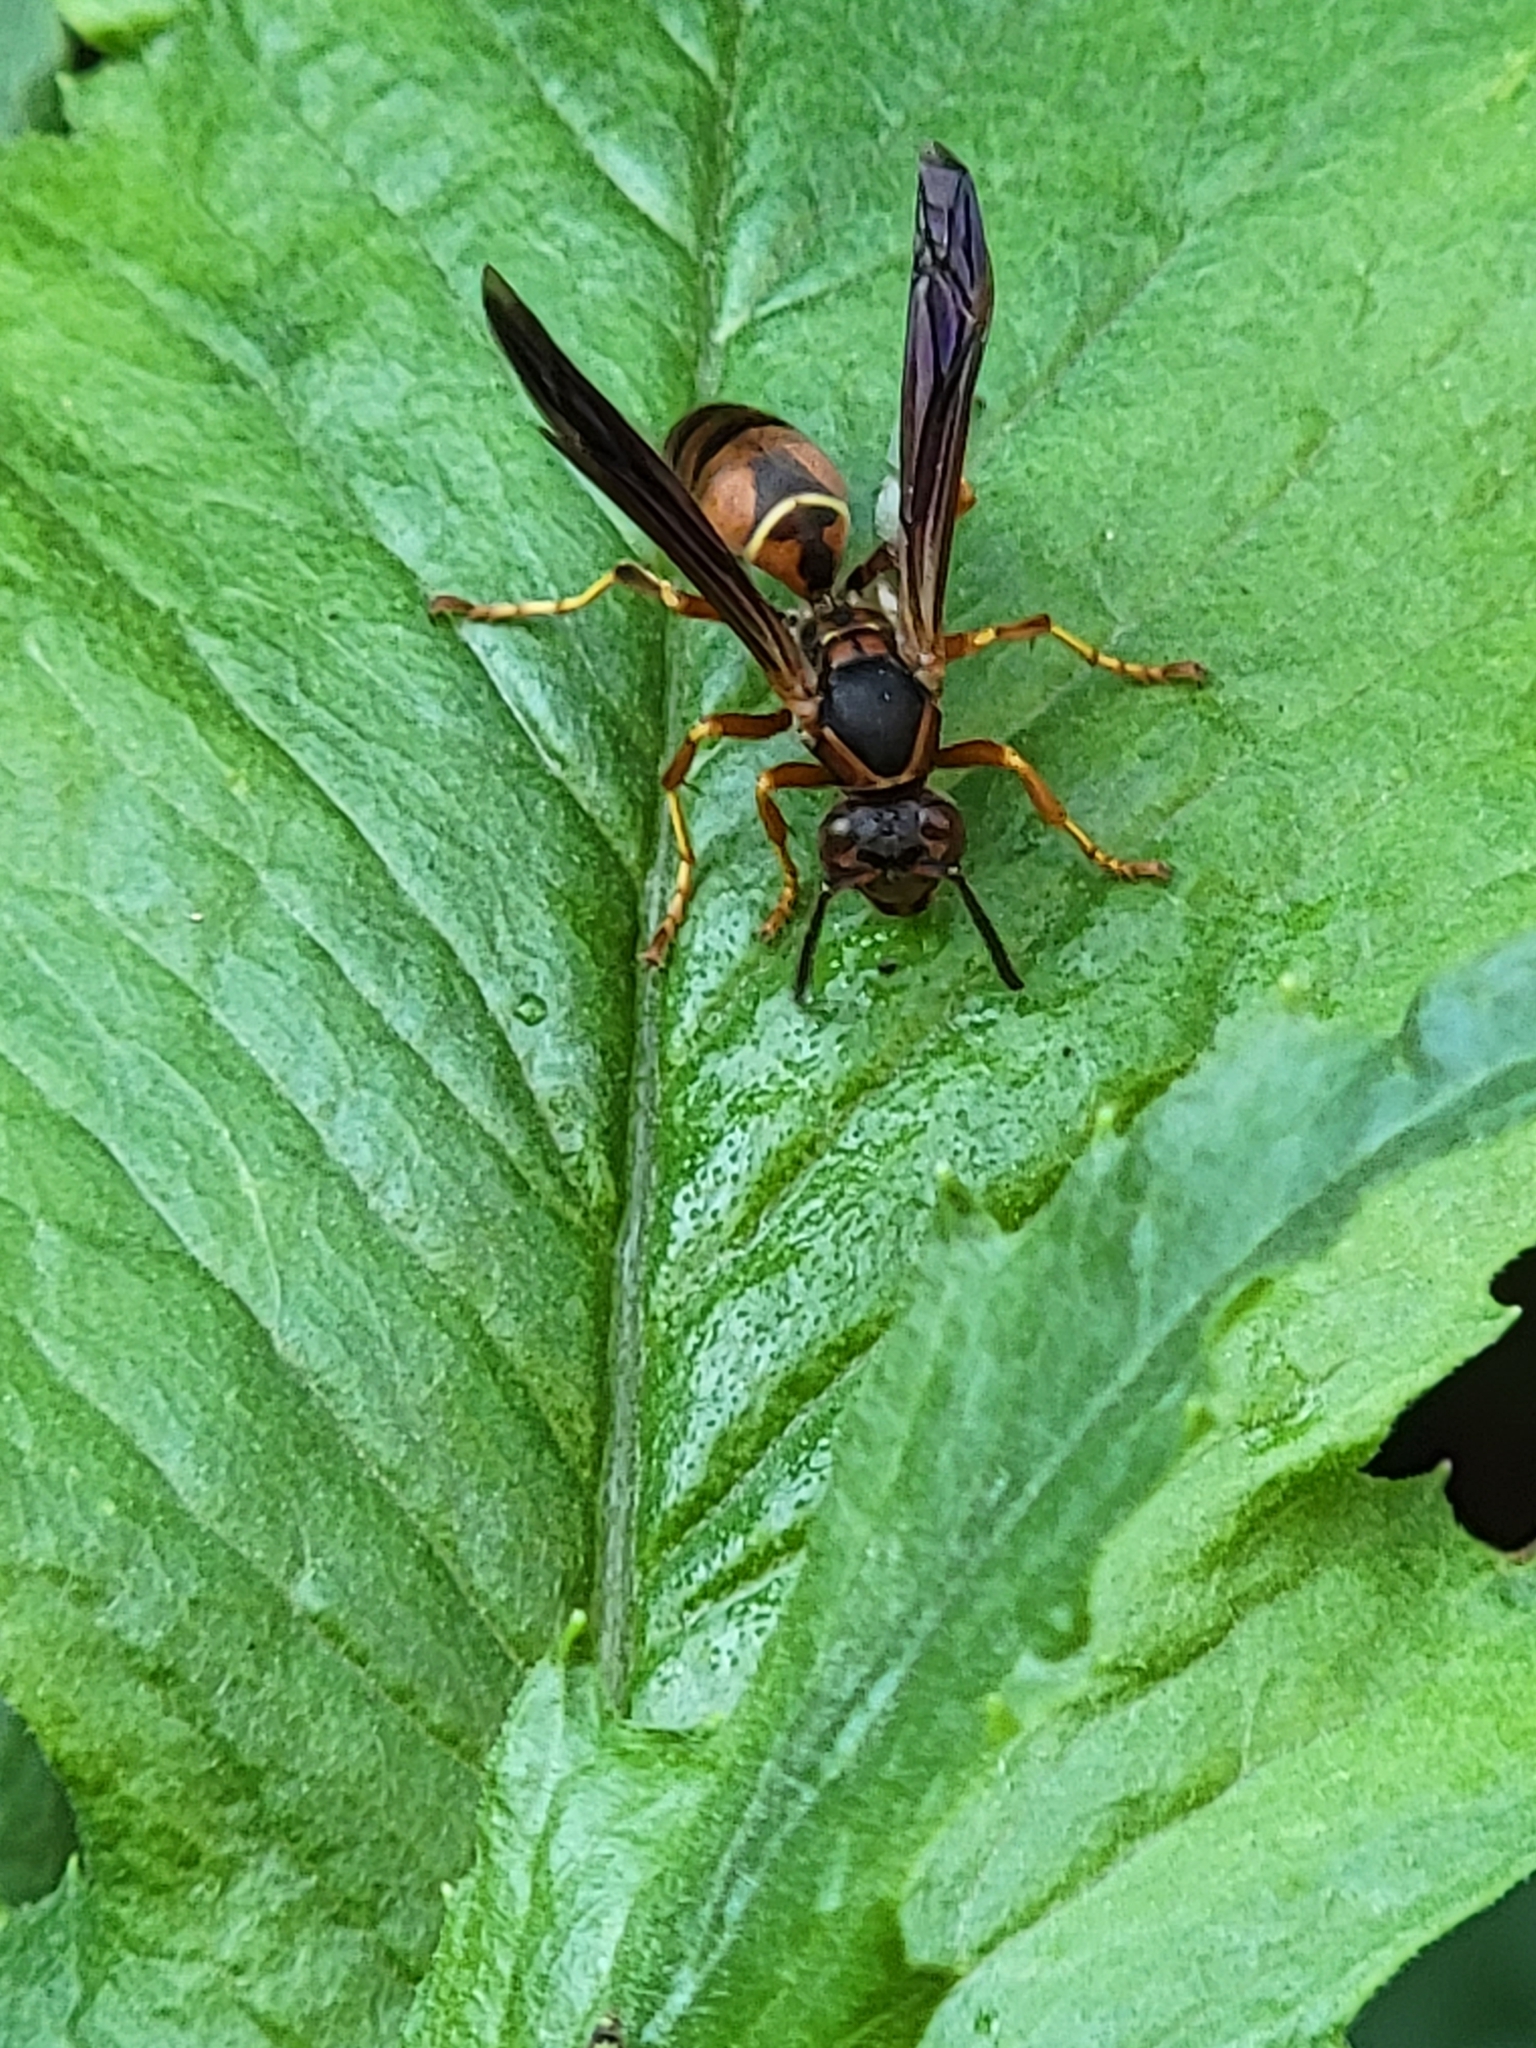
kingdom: Animalia
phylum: Arthropoda
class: Insecta
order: Hymenoptera
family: Eumenidae
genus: Polistes
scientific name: Polistes fuscatus
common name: Dark paper wasp
